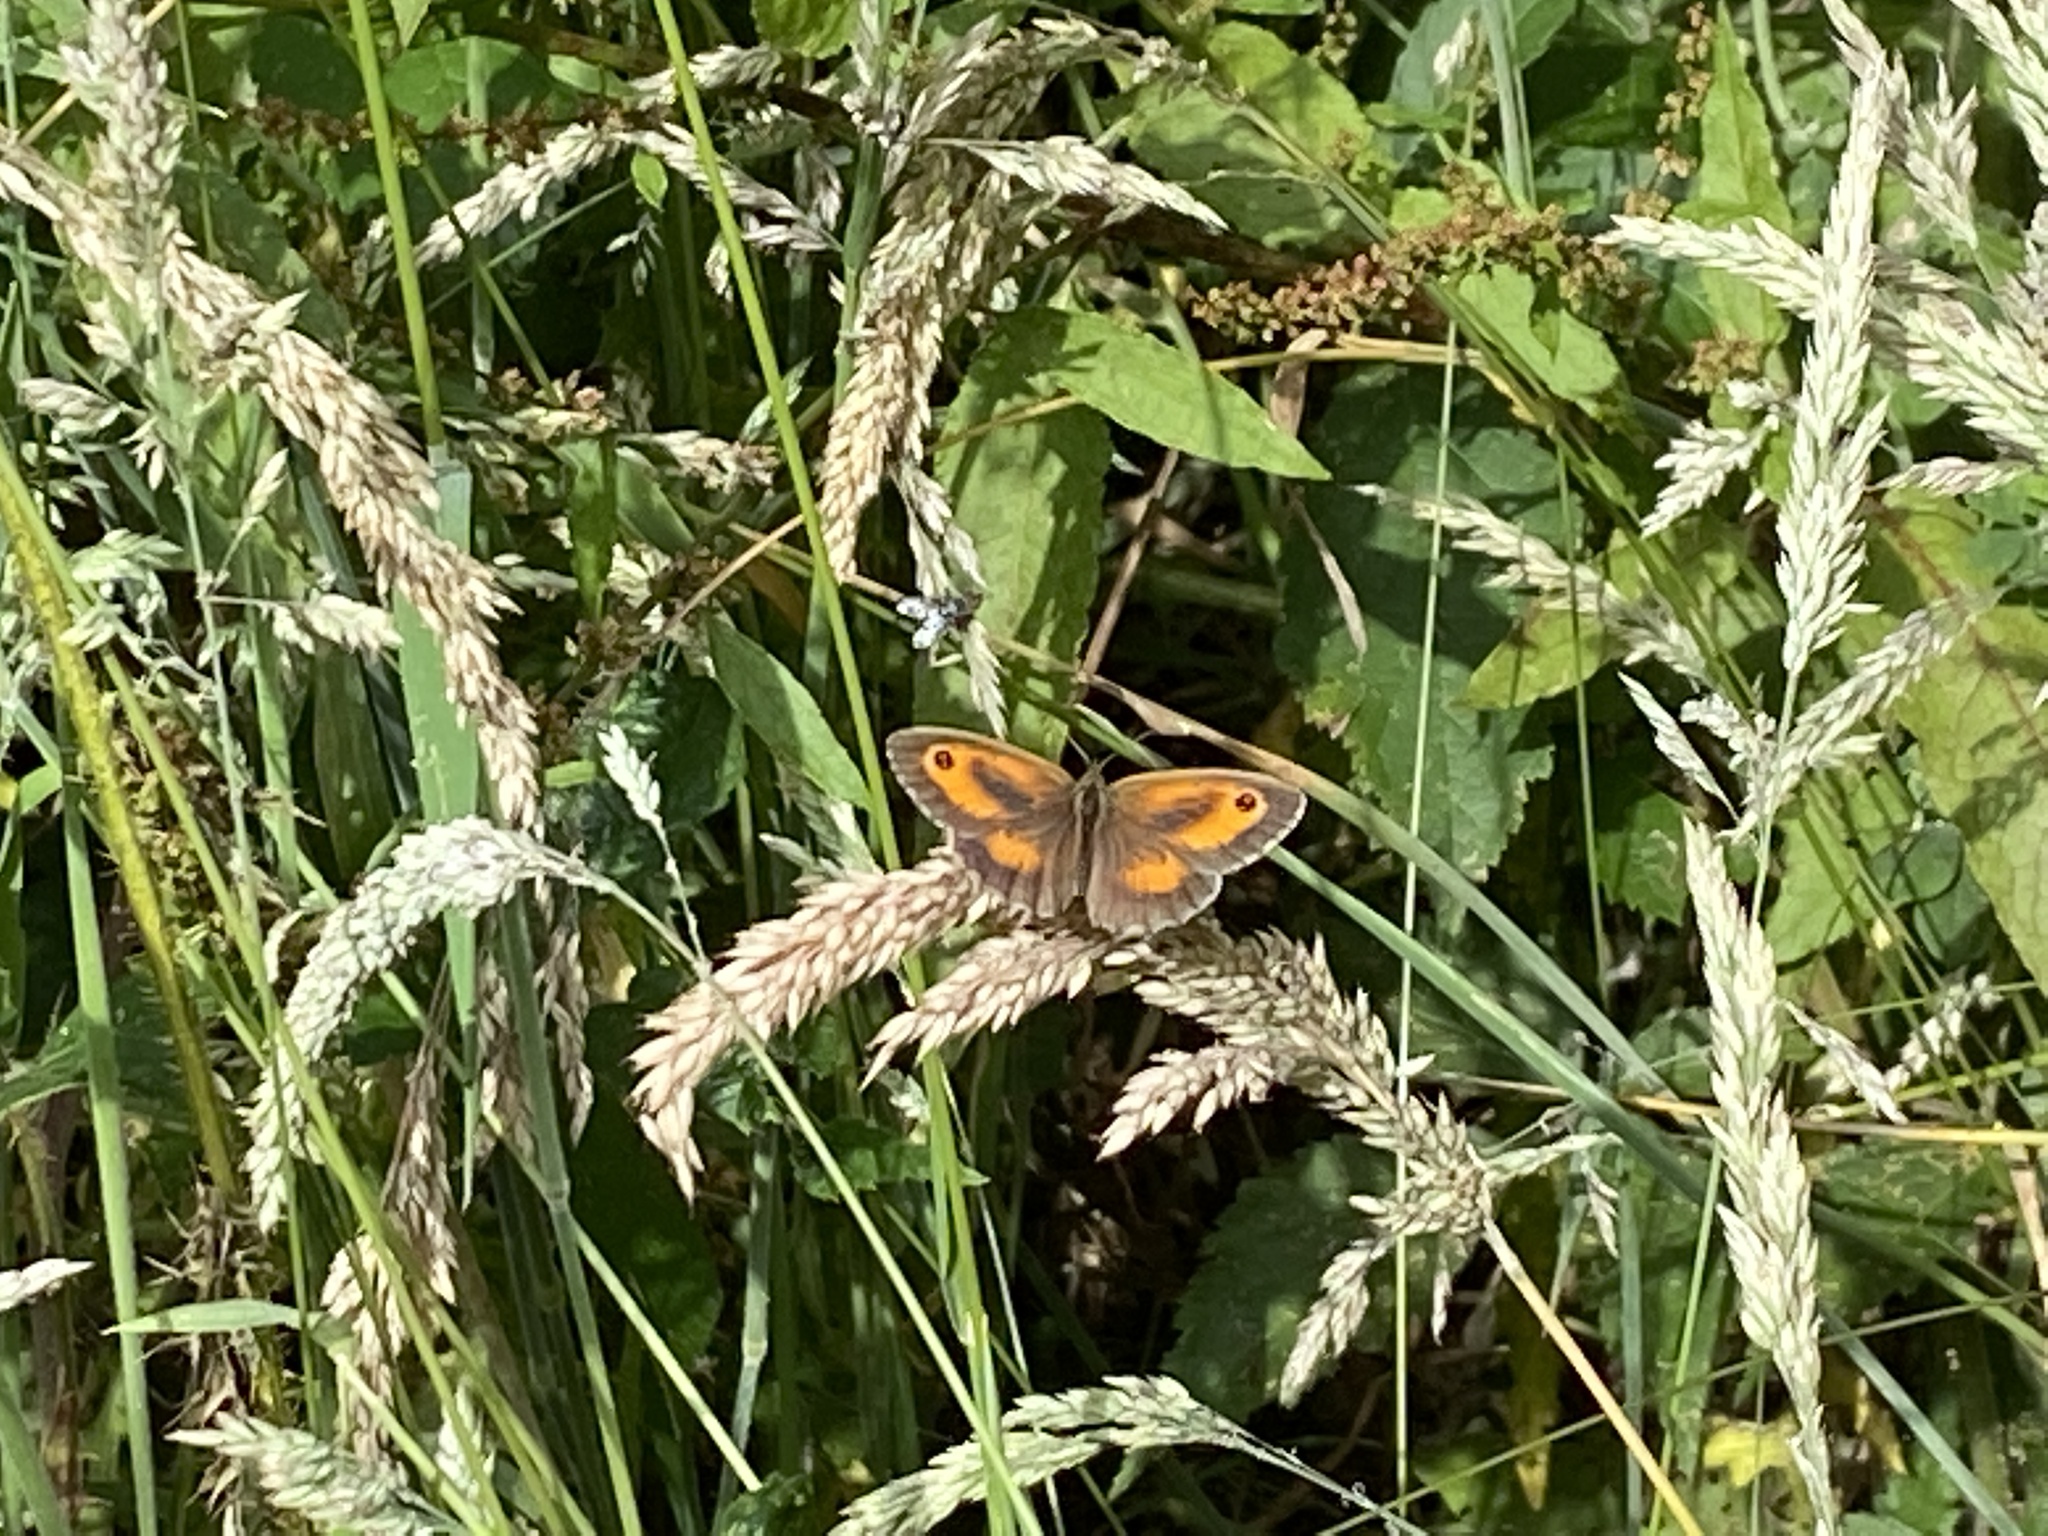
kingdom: Animalia
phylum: Arthropoda
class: Insecta
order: Lepidoptera
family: Nymphalidae
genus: Pyronia
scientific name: Pyronia tithonus
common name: Gatekeeper
